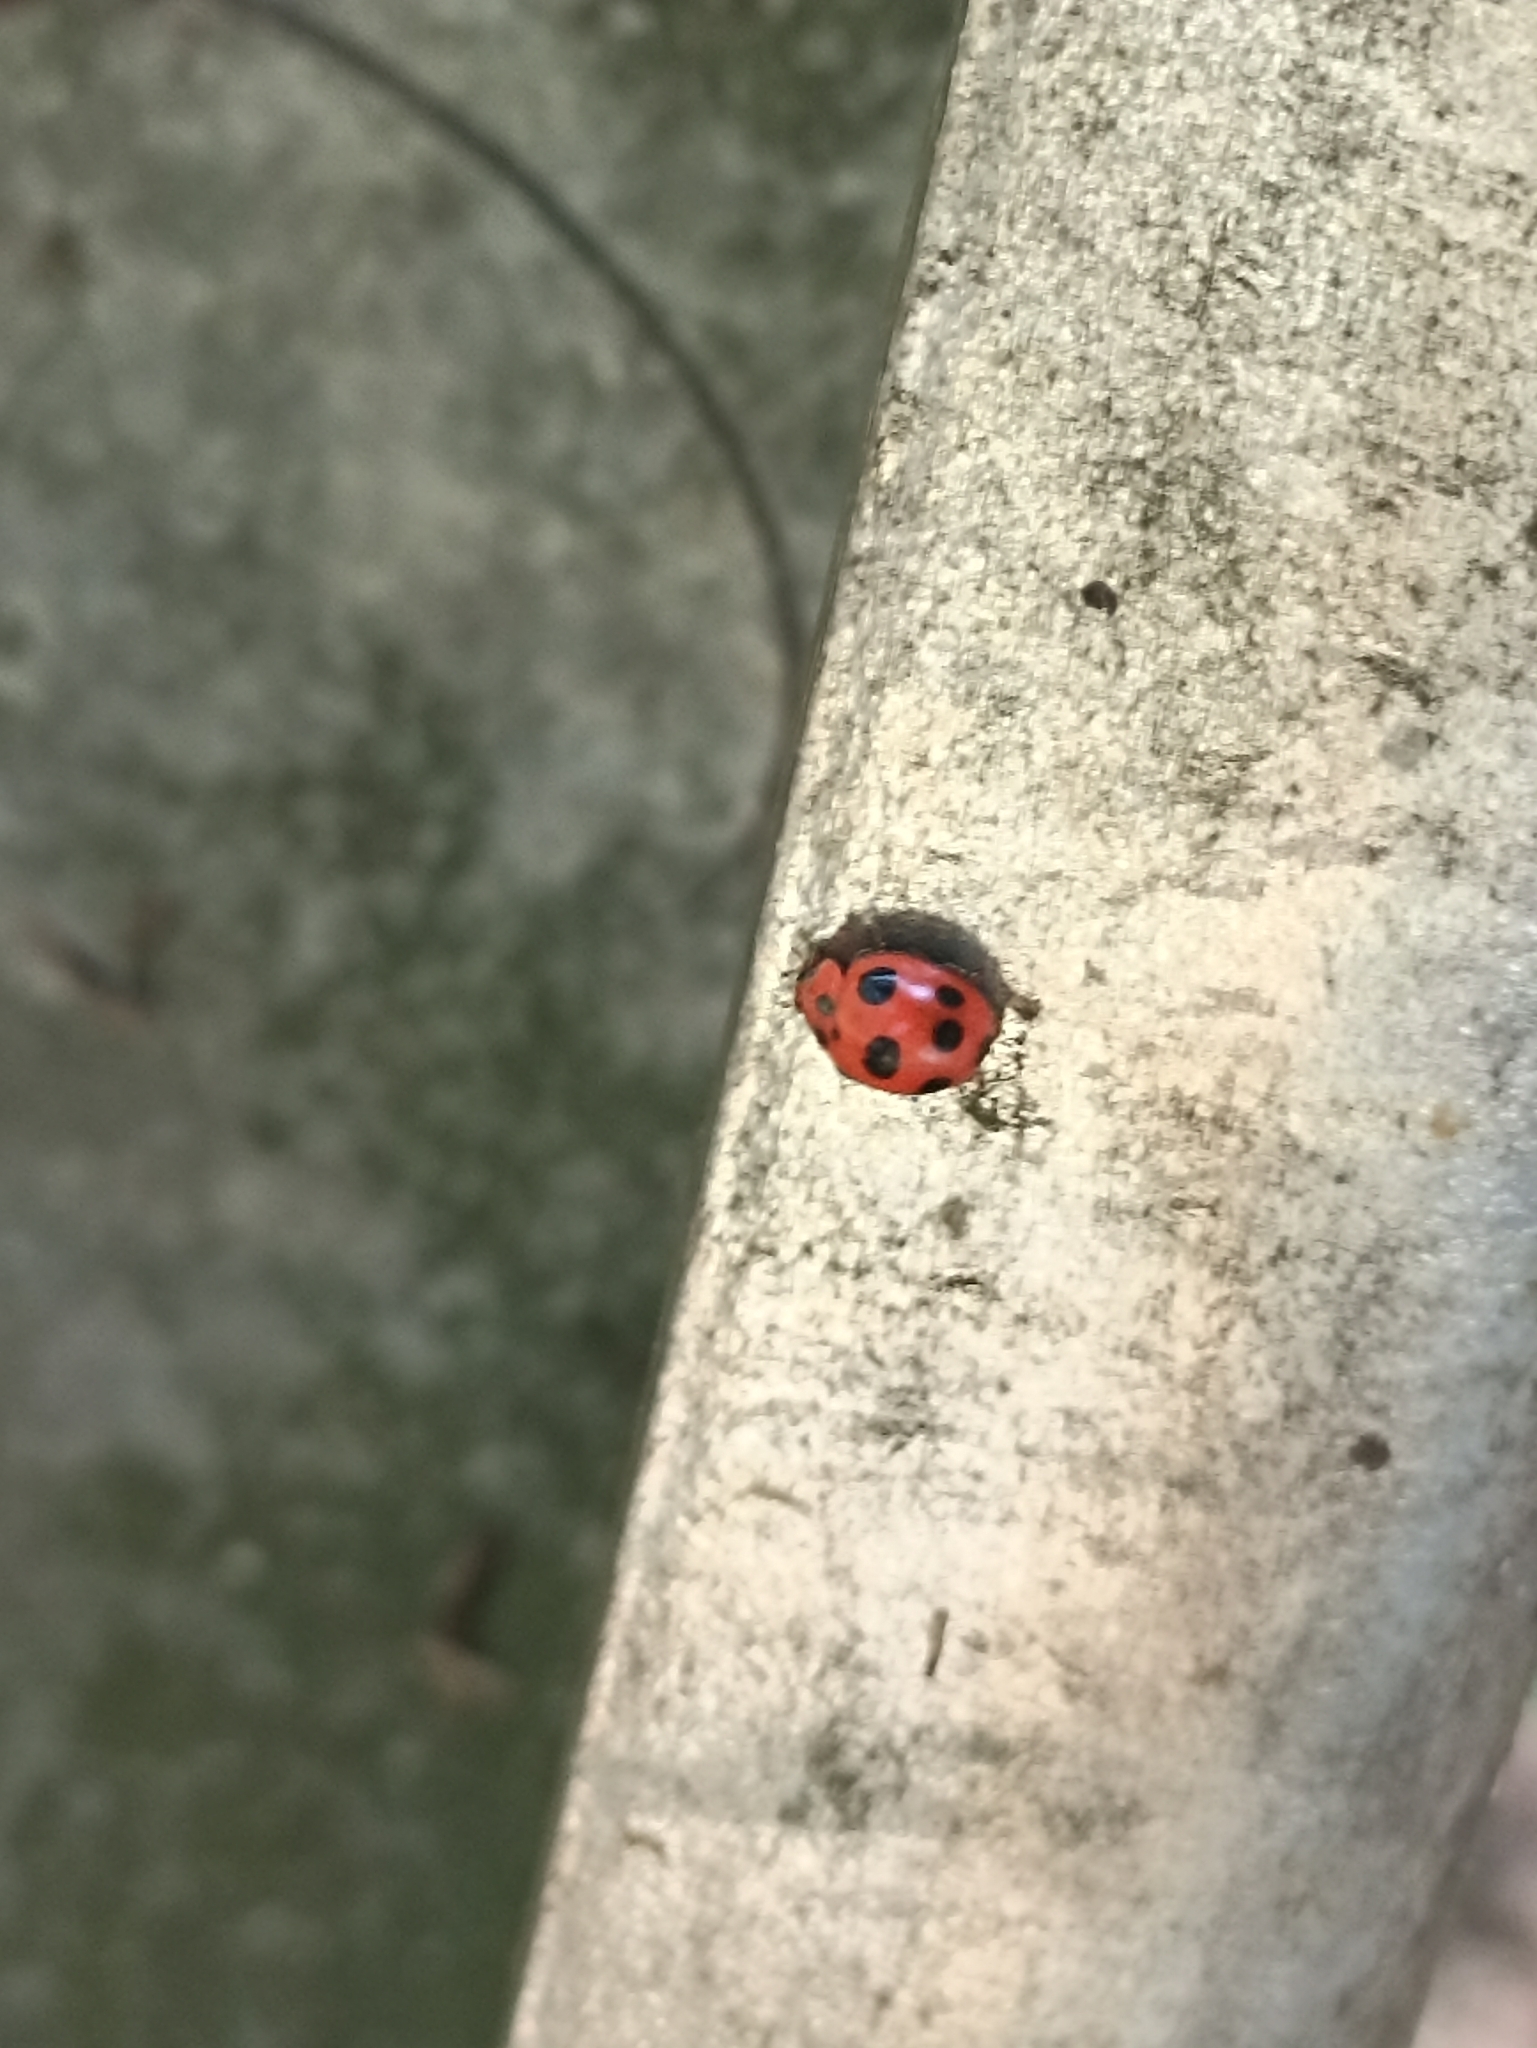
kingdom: Animalia
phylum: Arthropoda
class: Insecta
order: Coleoptera
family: Coccinellidae
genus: Exoplectra
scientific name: Exoplectra
